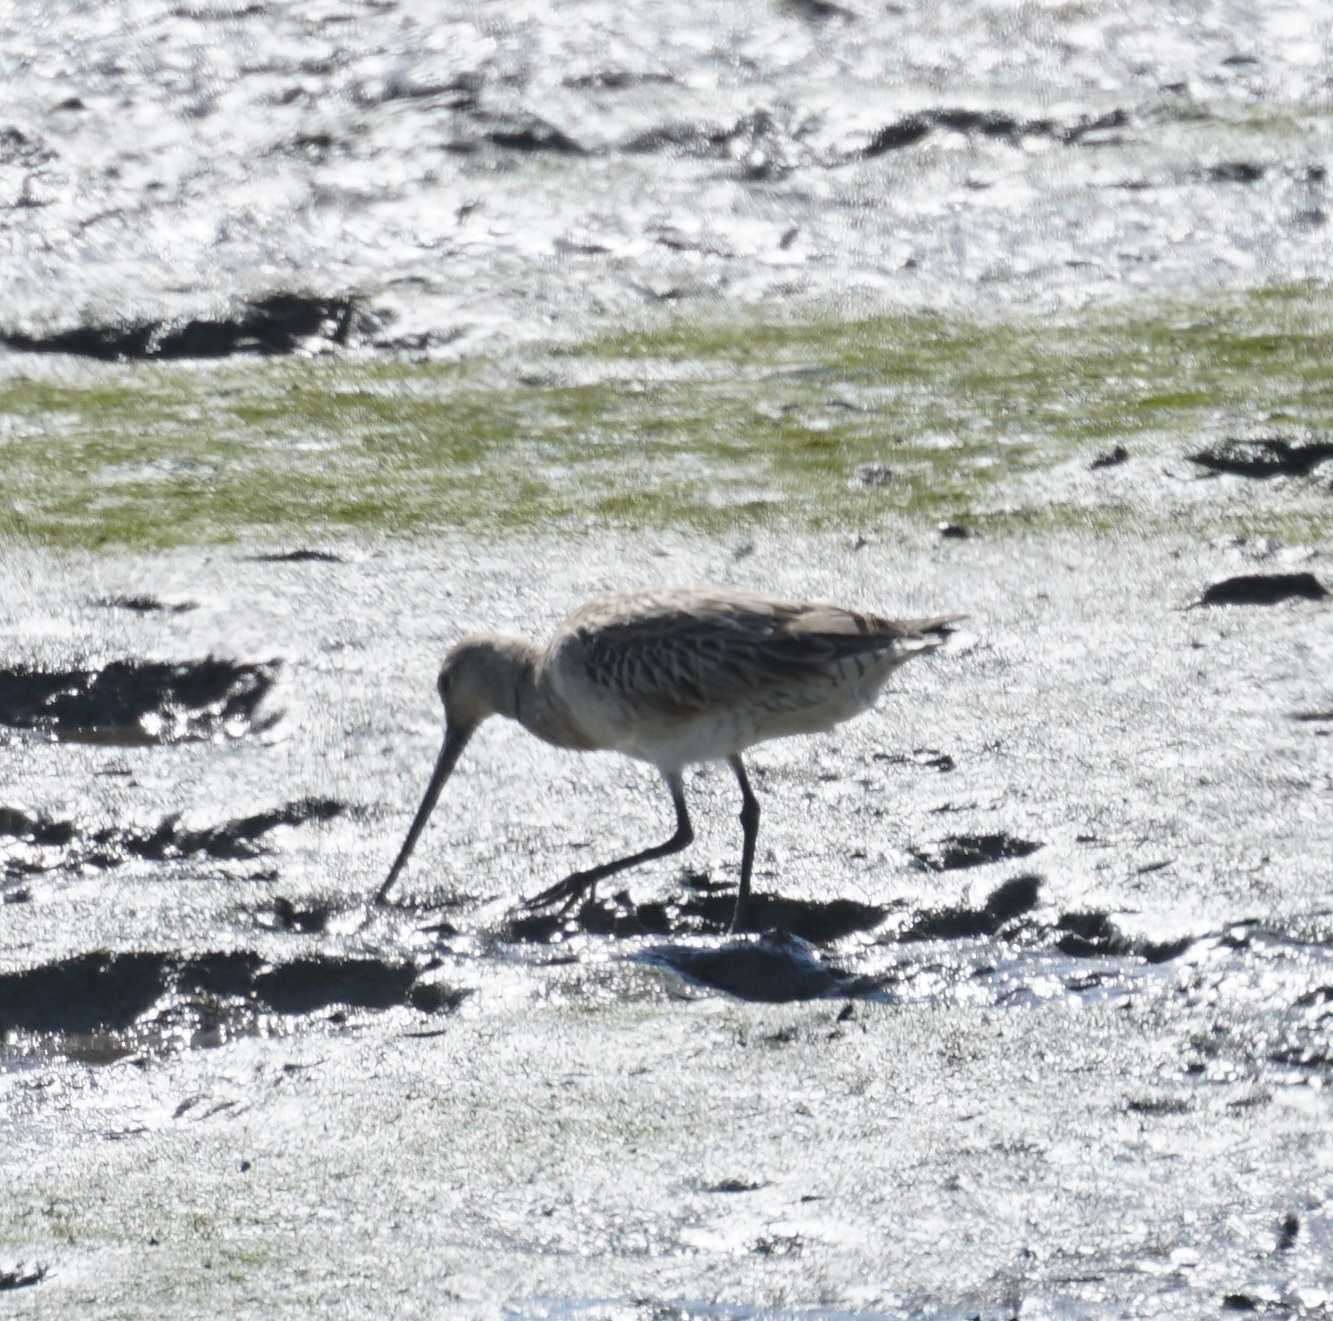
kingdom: Animalia
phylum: Chordata
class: Aves
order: Charadriiformes
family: Scolopacidae
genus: Limosa
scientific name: Limosa lapponica
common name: Bar-tailed godwit
